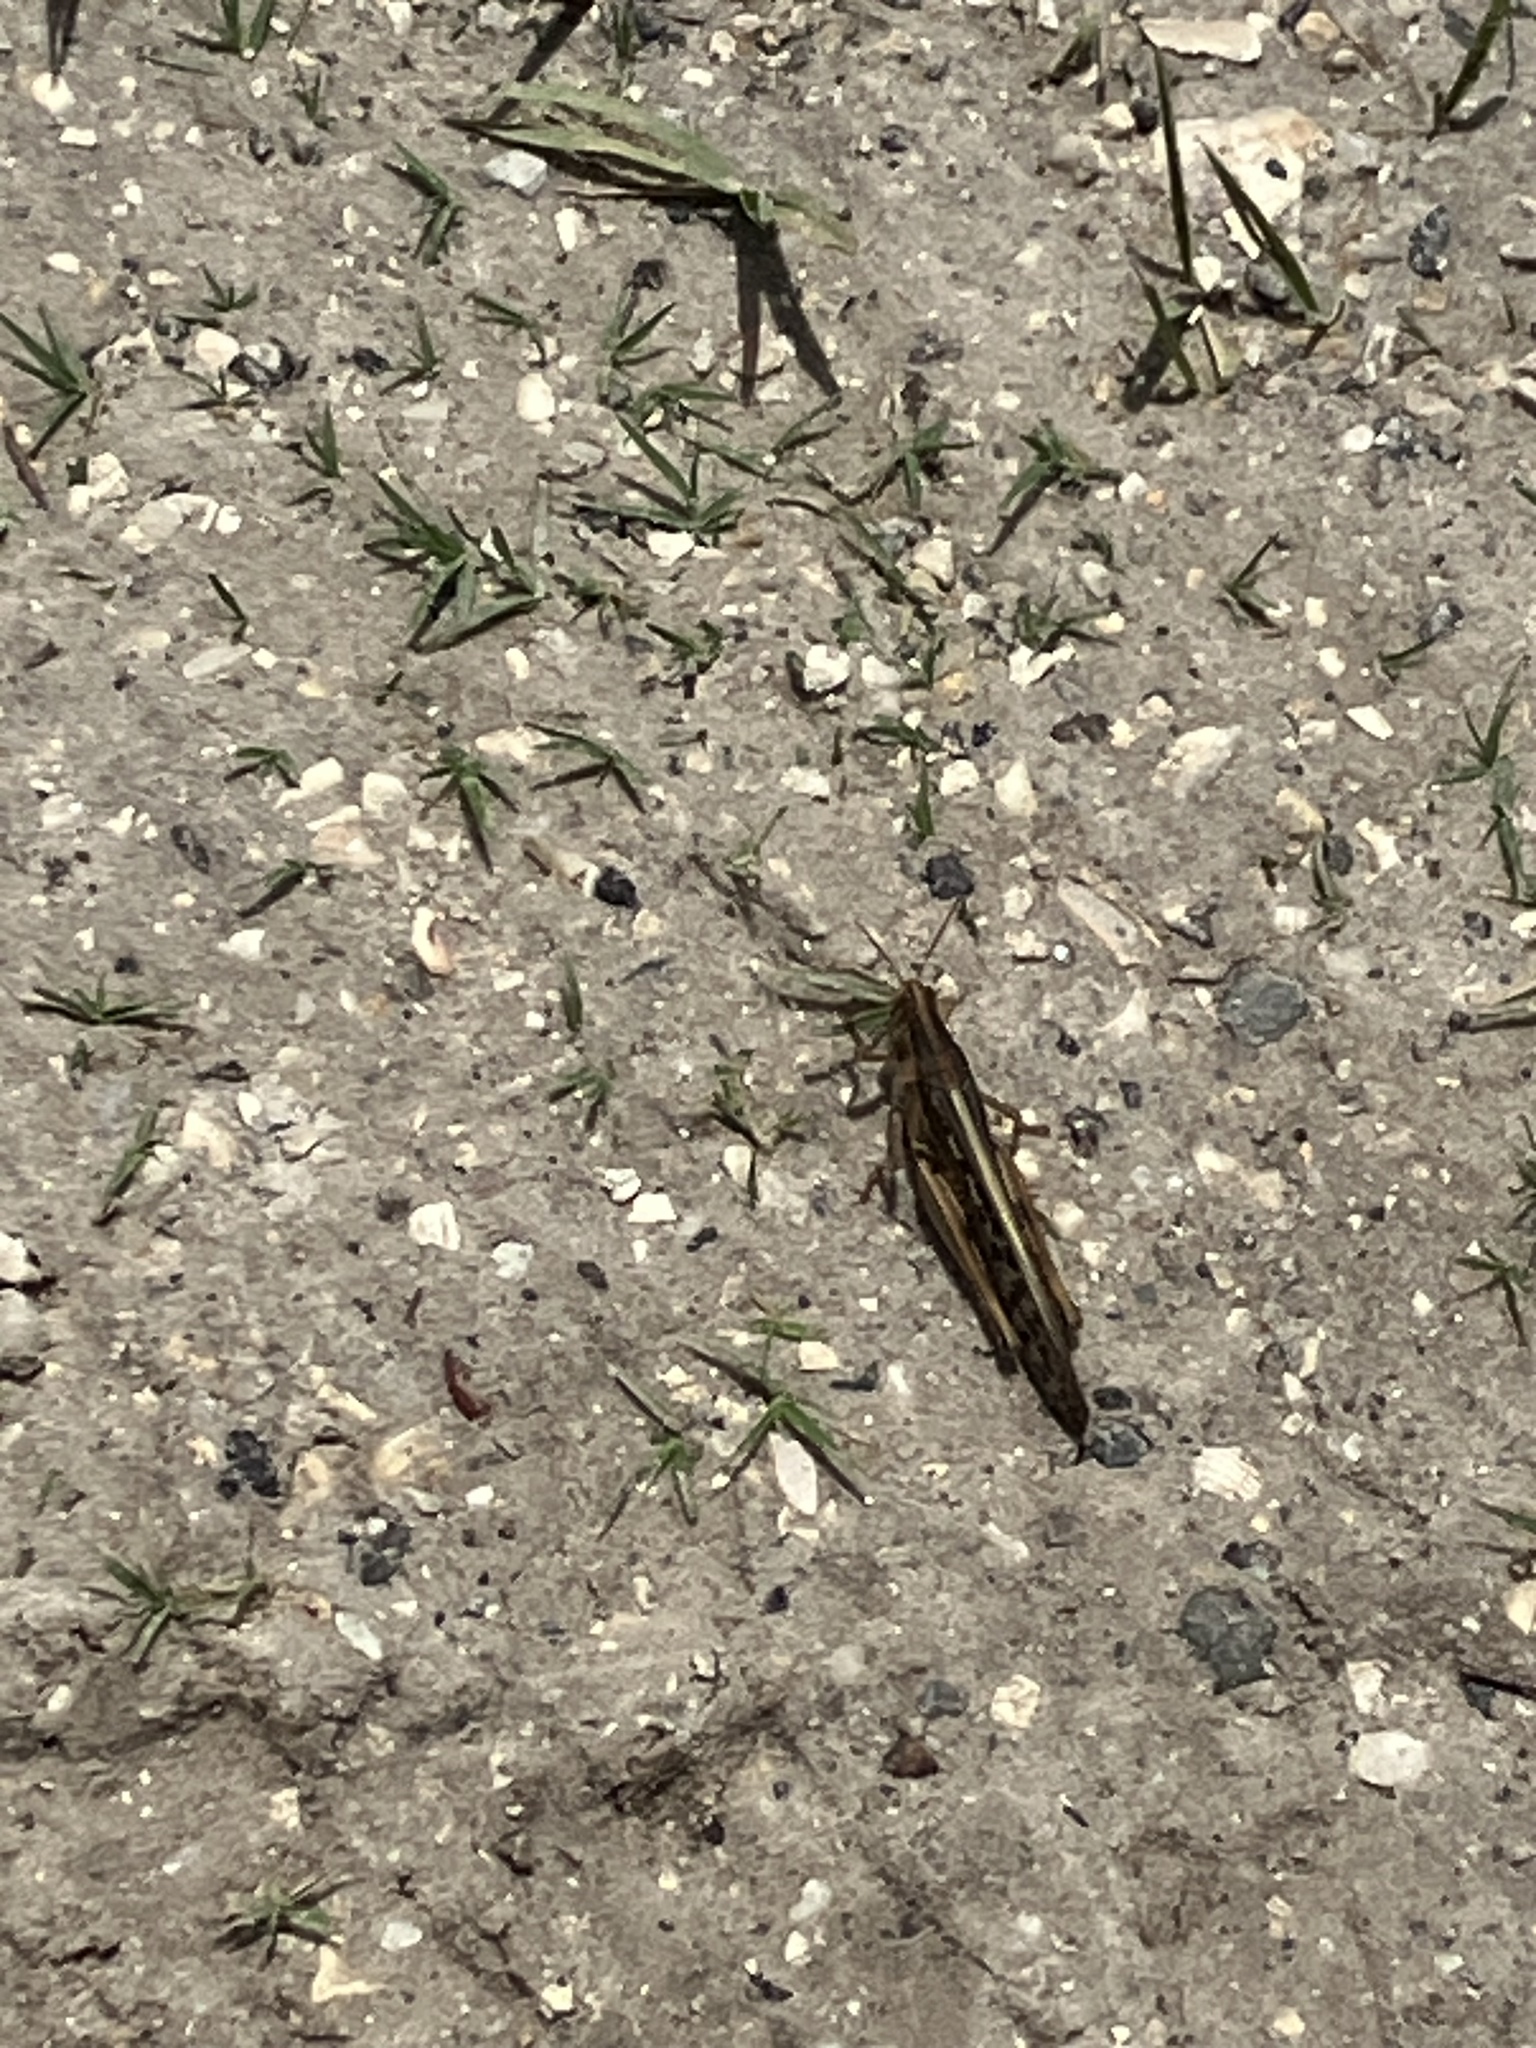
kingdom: Animalia
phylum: Arthropoda
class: Insecta
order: Orthoptera
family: Acrididae
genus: Schistocerca
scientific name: Schistocerca americana
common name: American bird locust
